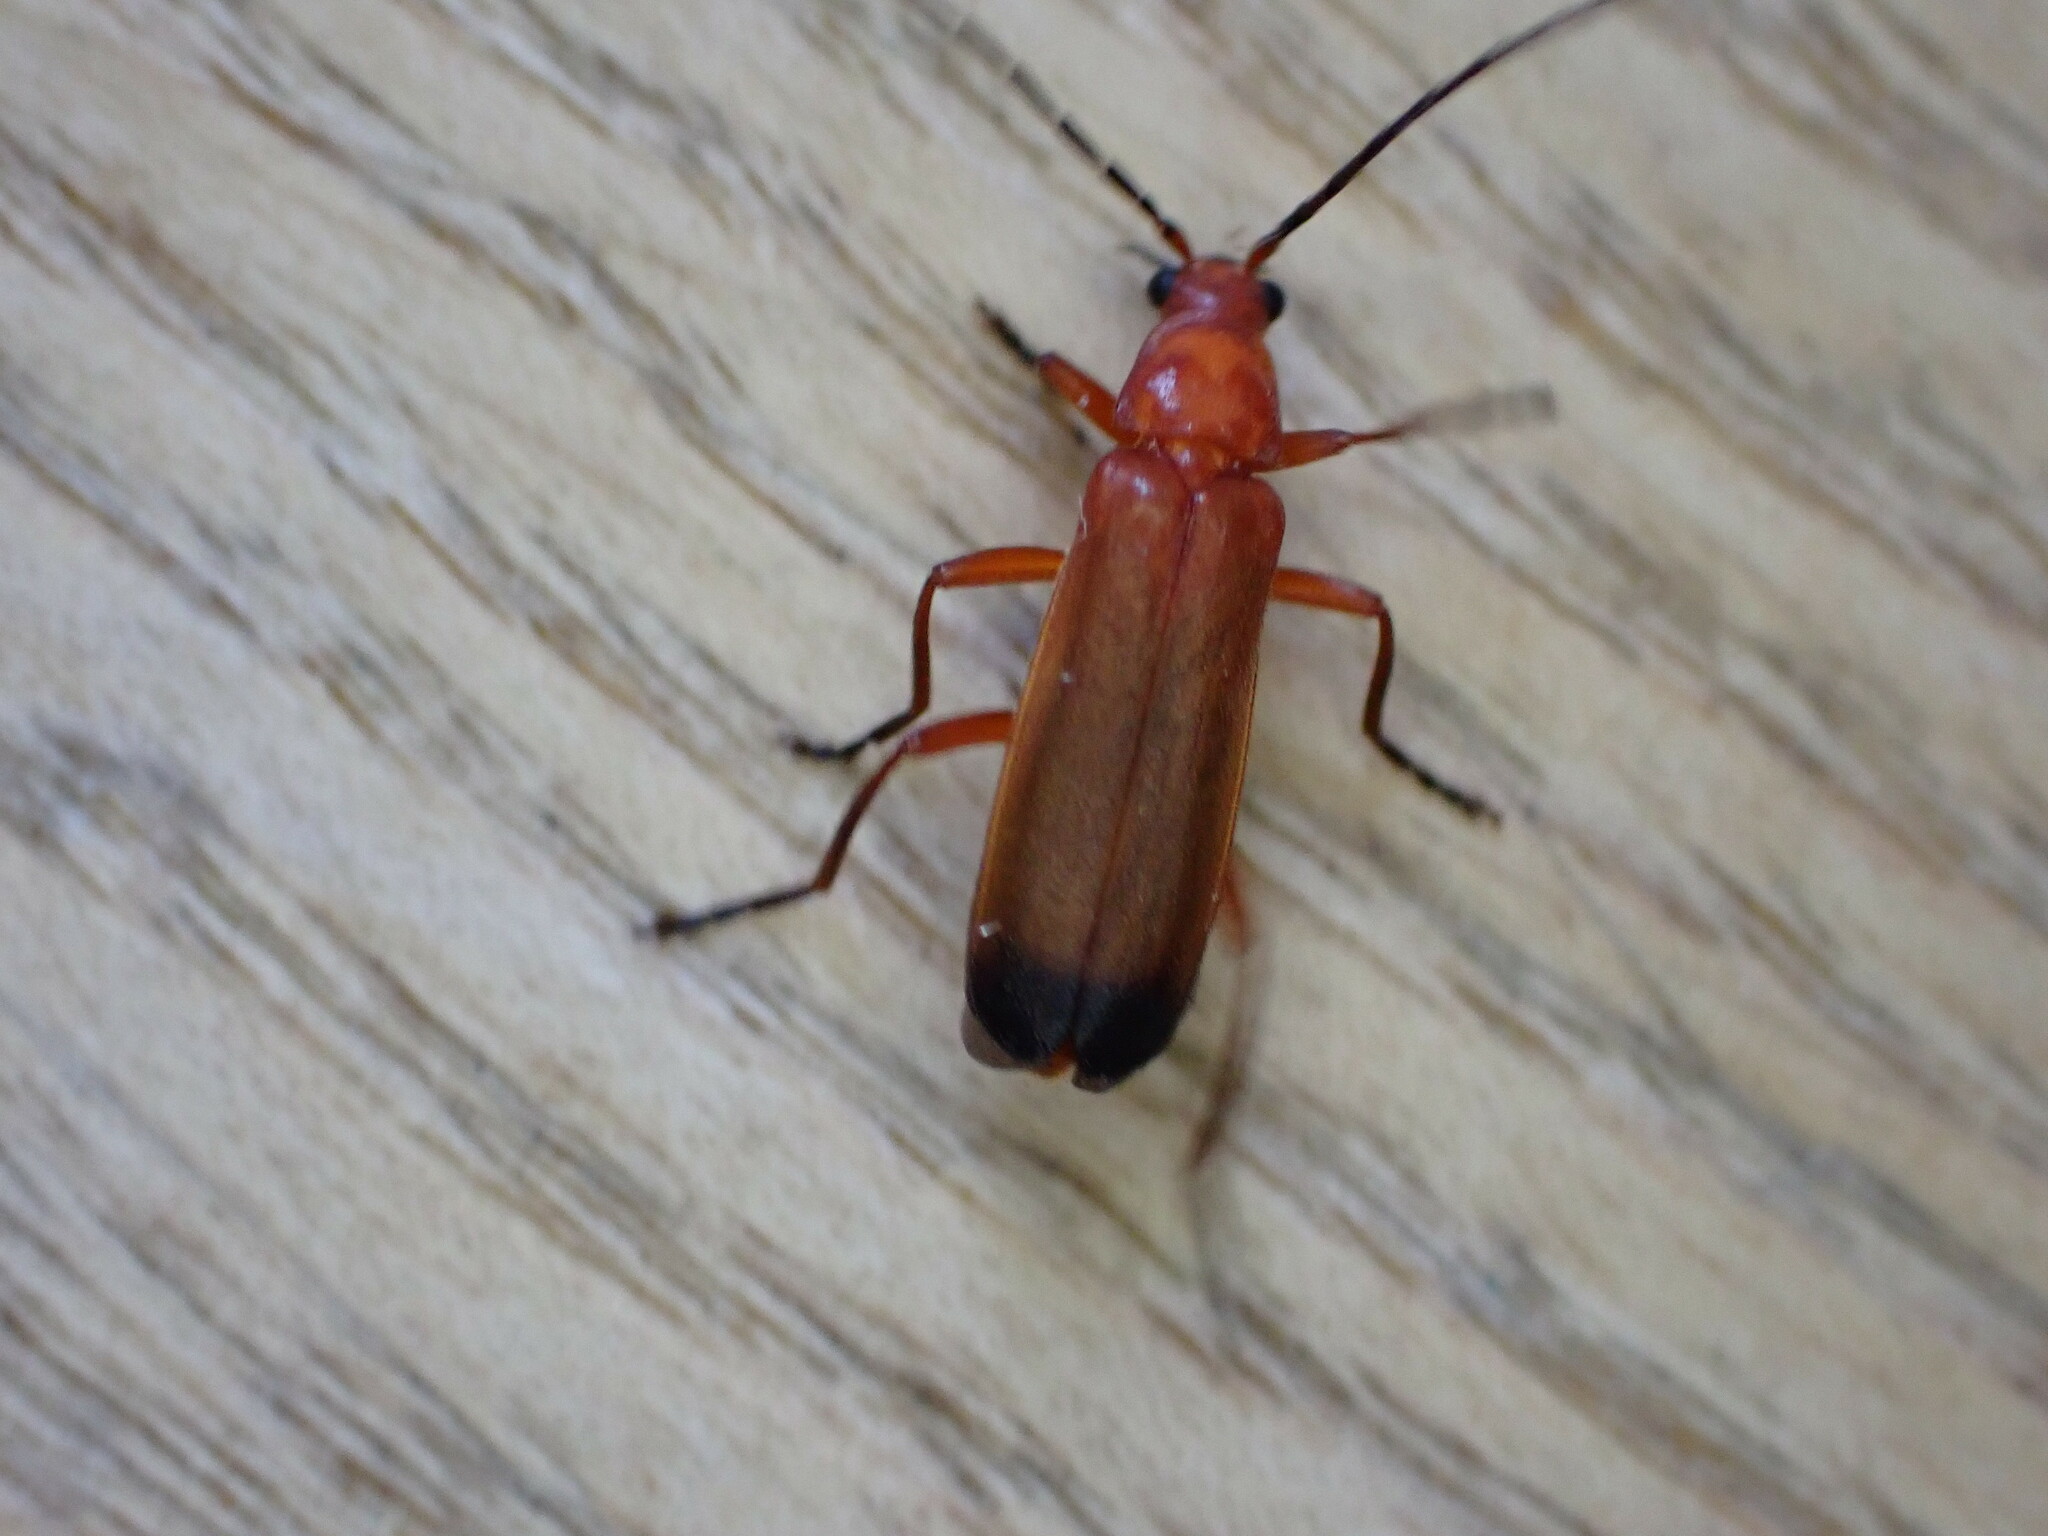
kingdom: Animalia
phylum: Arthropoda
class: Insecta
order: Coleoptera
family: Cantharidae
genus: Rhagonycha
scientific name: Rhagonycha fulva
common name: Common red soldier beetle
